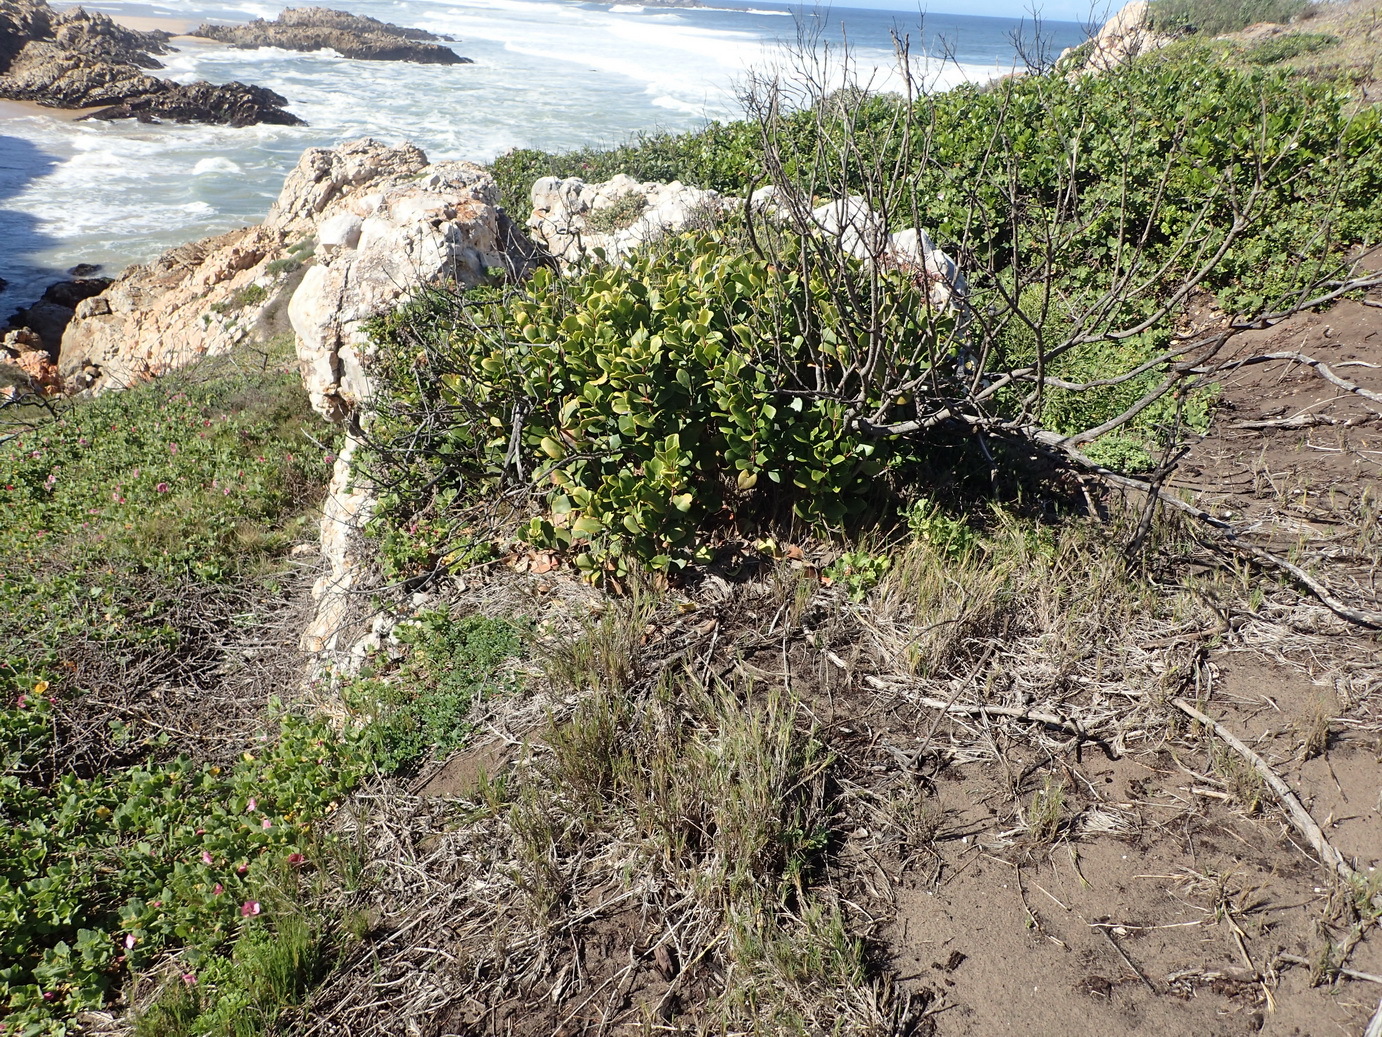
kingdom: Plantae
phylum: Tracheophyta
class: Magnoliopsida
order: Celastrales
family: Celastraceae
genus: Pterocelastrus
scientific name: Pterocelastrus tricuspidatus
